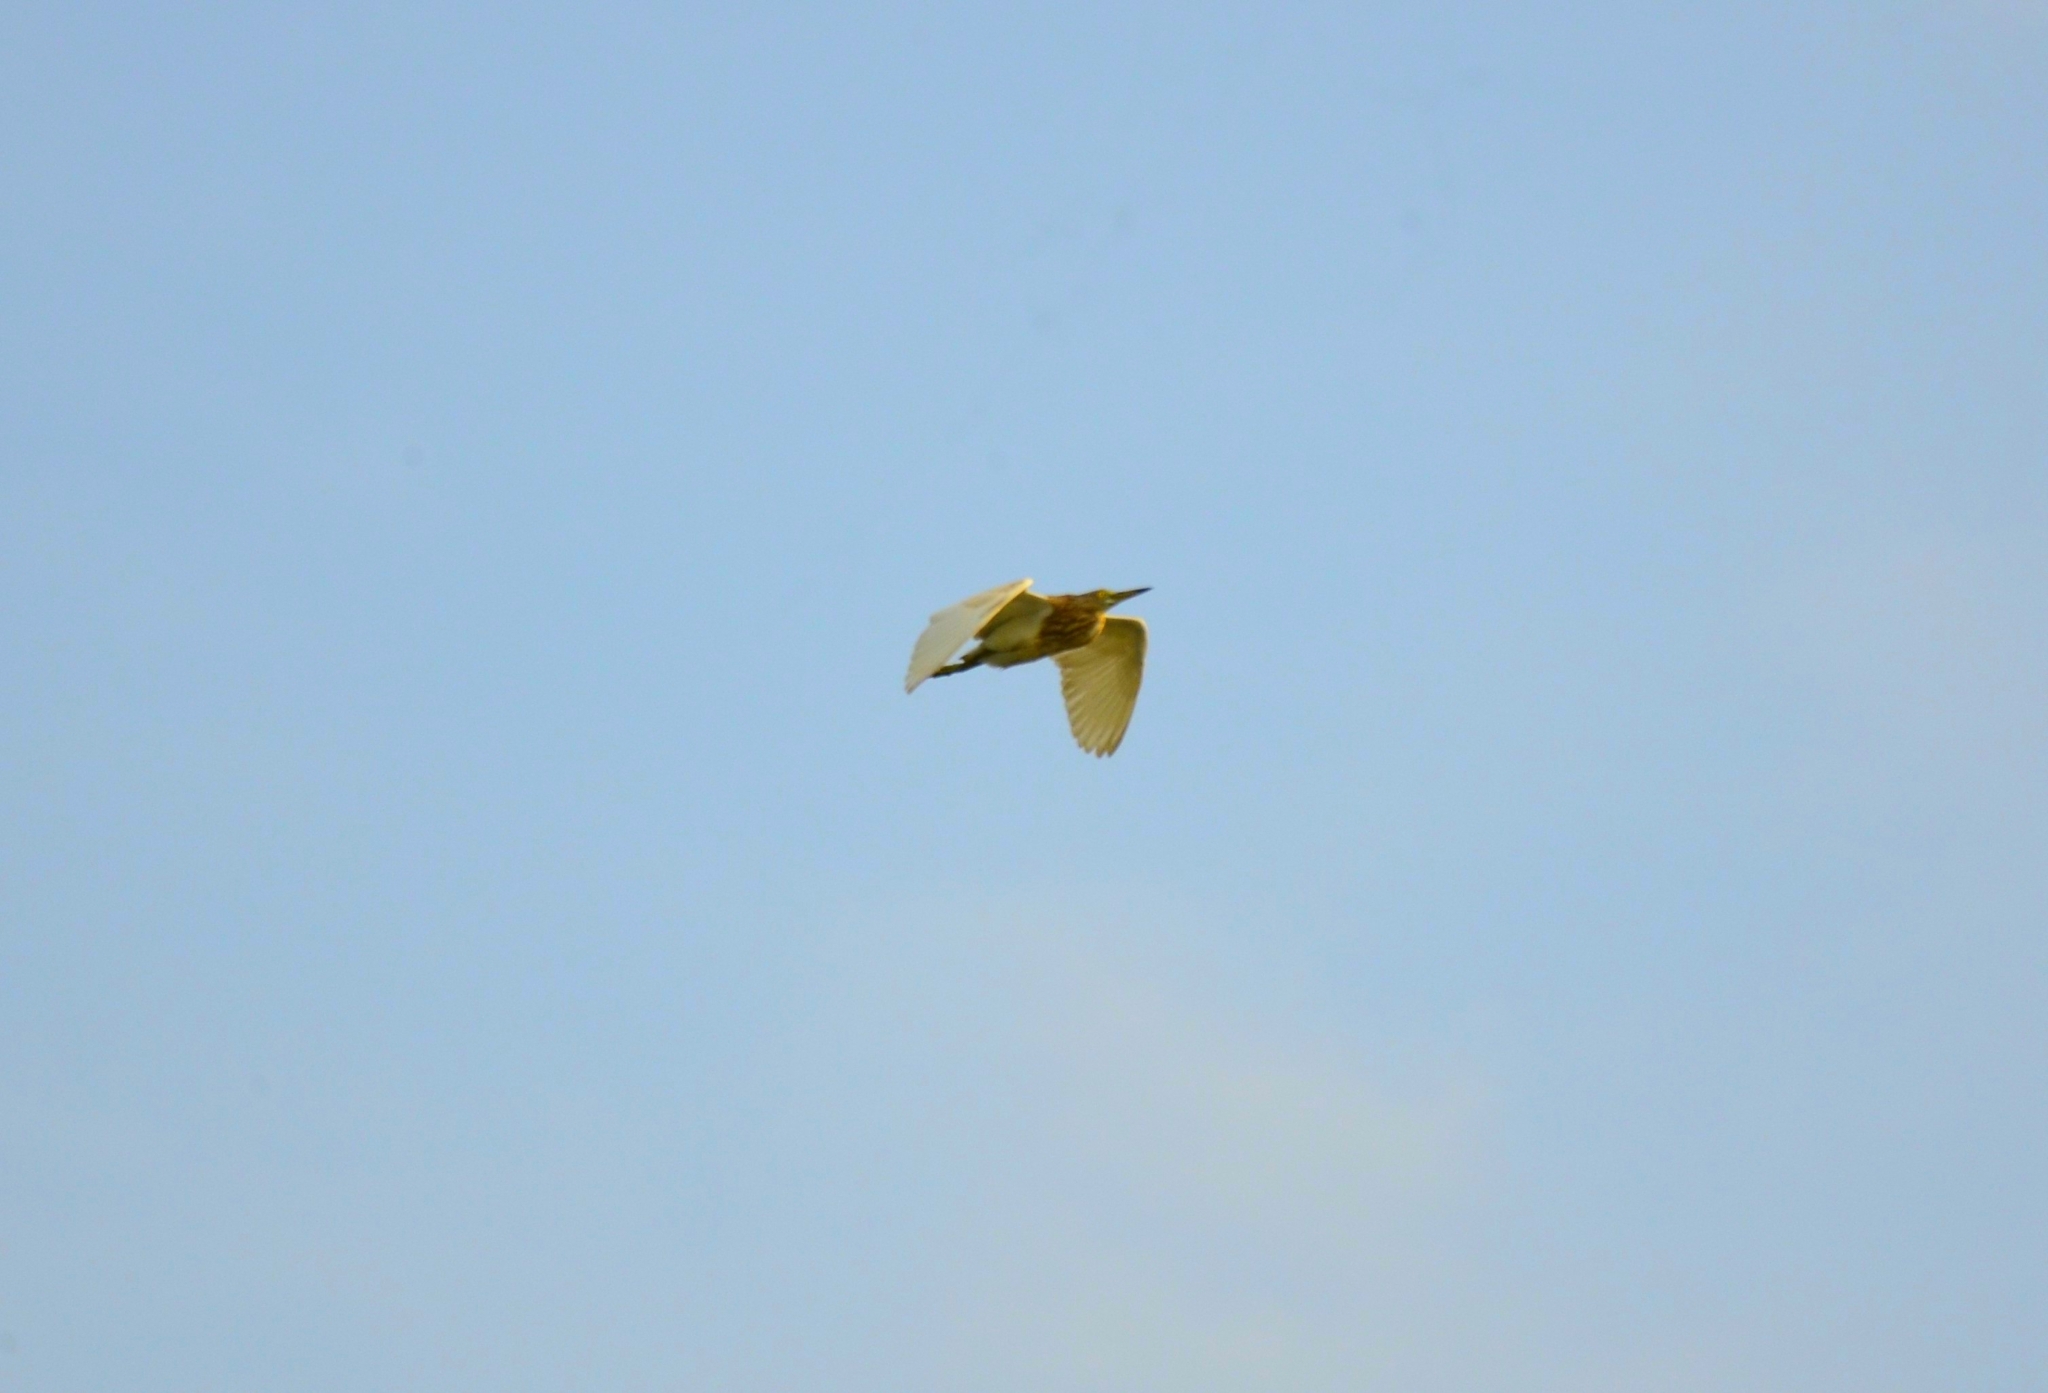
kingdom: Animalia
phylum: Chordata
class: Aves
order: Pelecaniformes
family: Ardeidae
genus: Ardeola
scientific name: Ardeola grayii
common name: Indian pond heron
